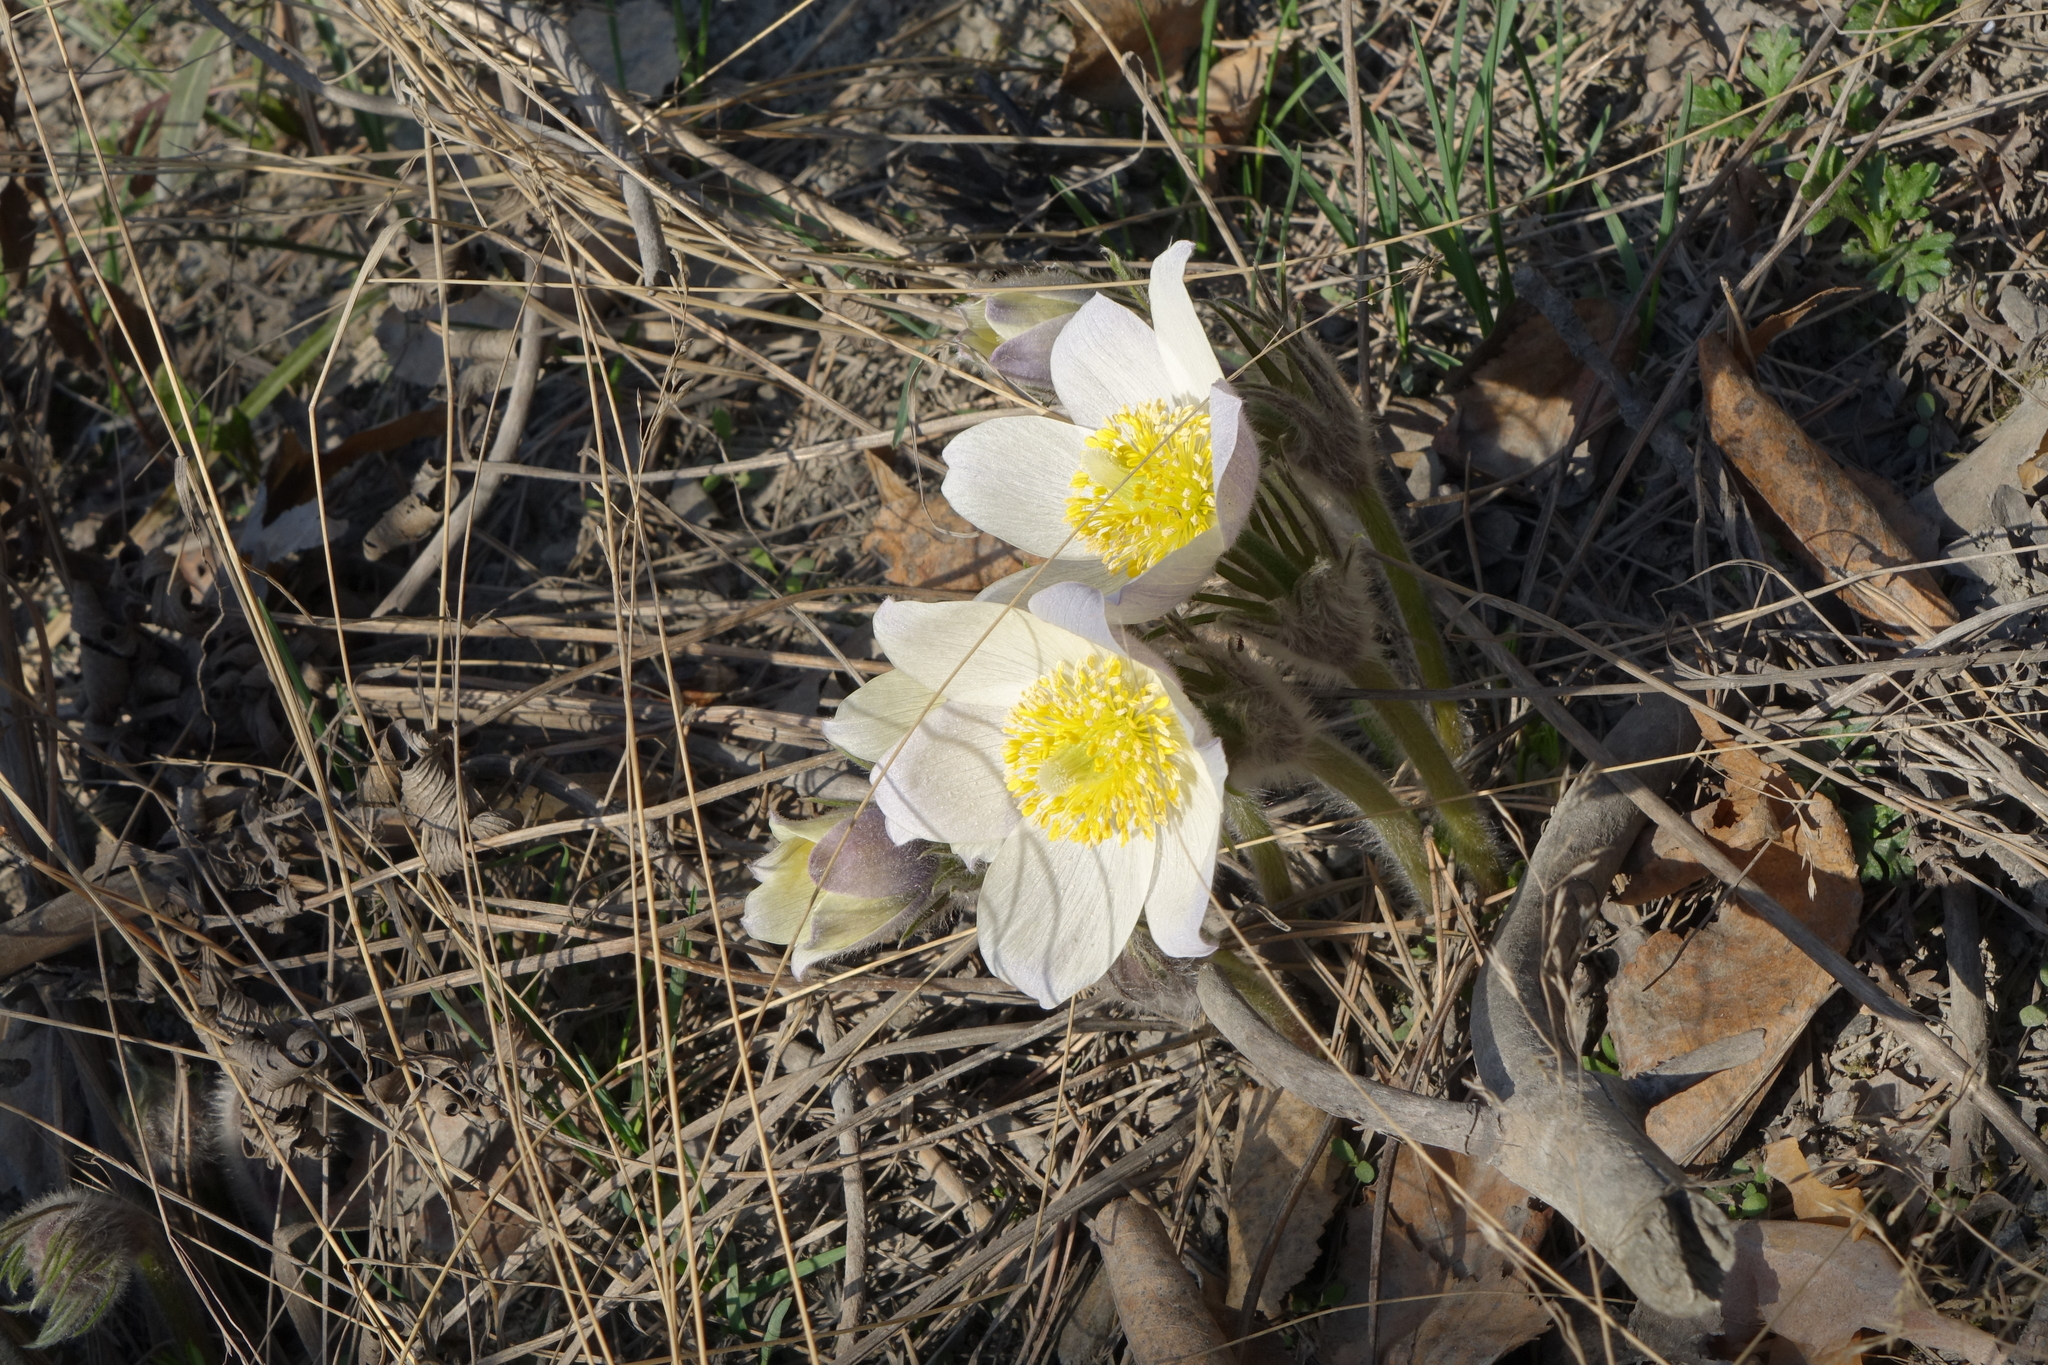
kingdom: Plantae
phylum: Tracheophyta
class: Magnoliopsida
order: Ranunculales
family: Ranunculaceae
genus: Pulsatilla
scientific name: Pulsatilla patens
